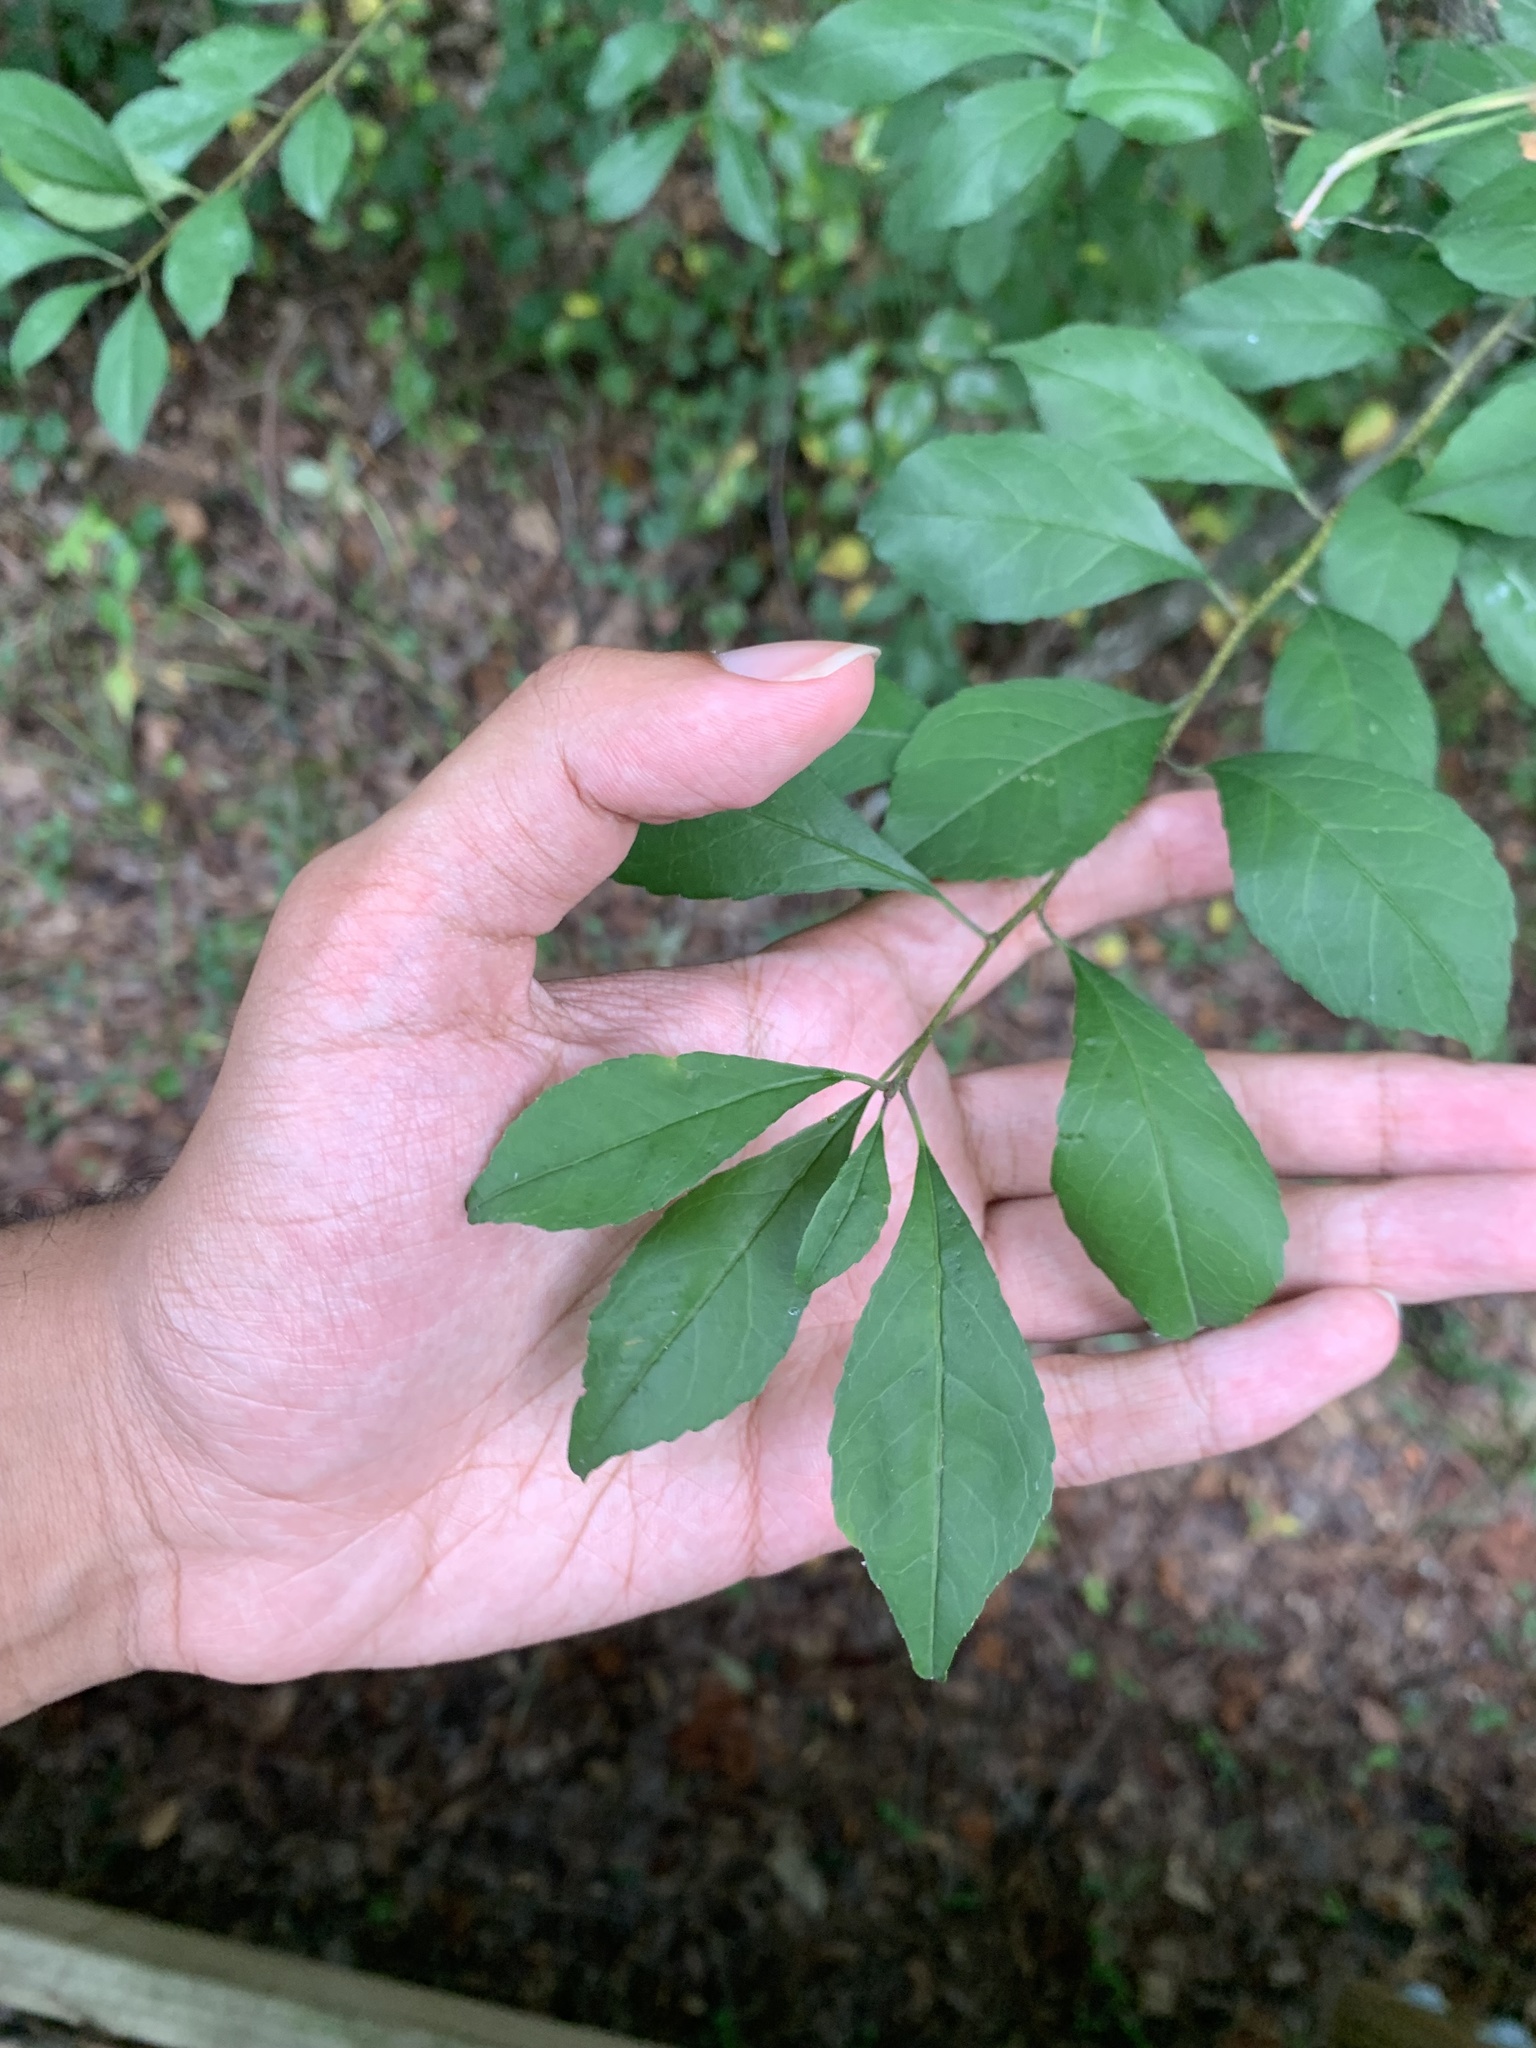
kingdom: Plantae
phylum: Tracheophyta
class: Magnoliopsida
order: Aquifoliales
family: Aquifoliaceae
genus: Ilex
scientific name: Ilex decidua
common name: Possum-haw
